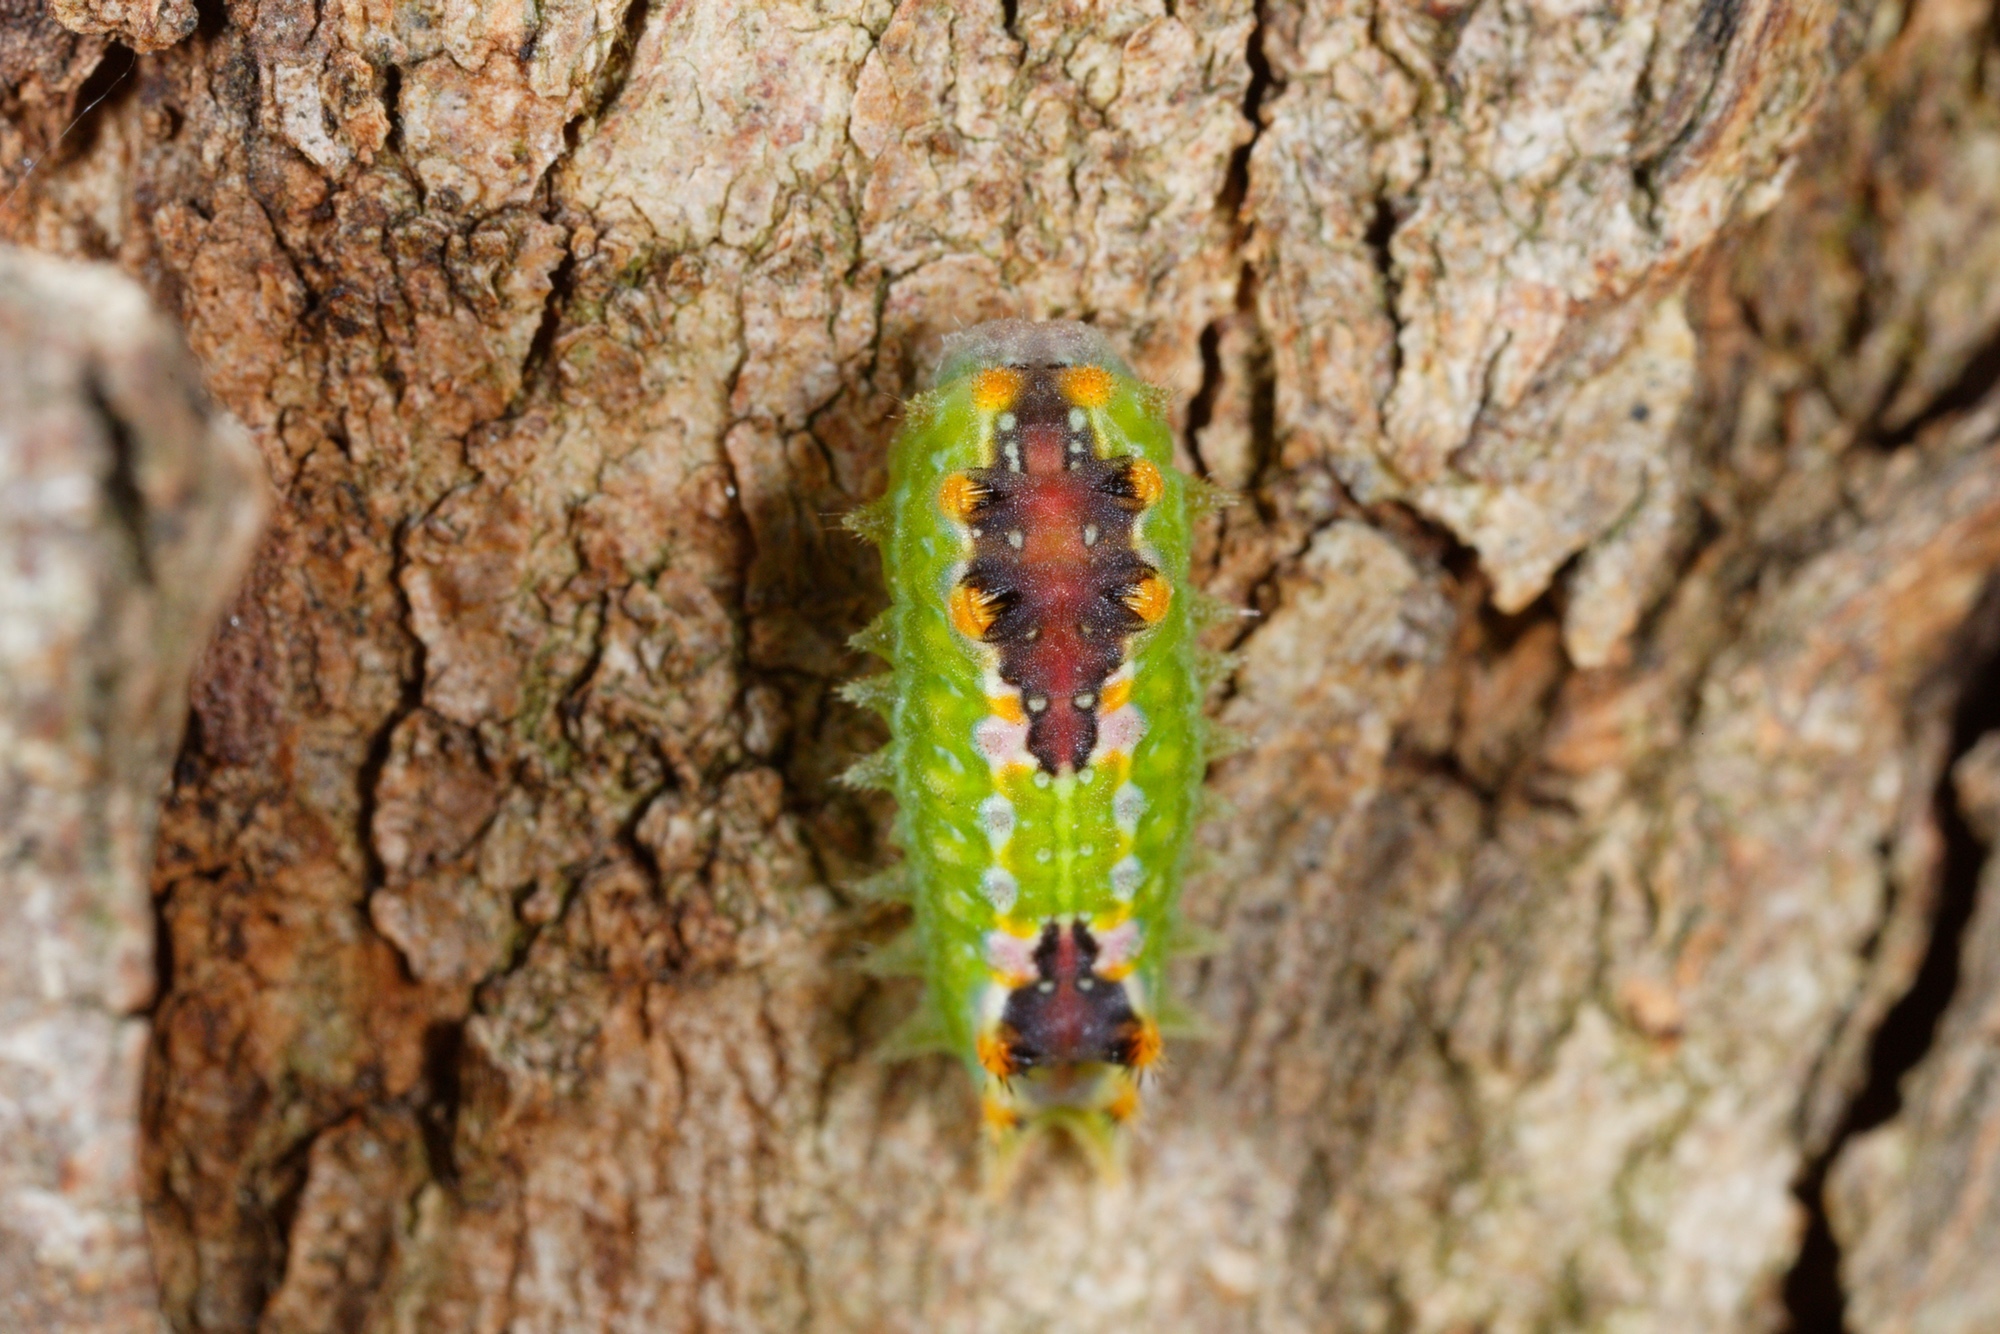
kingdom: Animalia
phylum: Arthropoda
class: Insecta
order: Lepidoptera
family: Limacodidae
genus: Doratifera
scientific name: Doratifera pinguis
